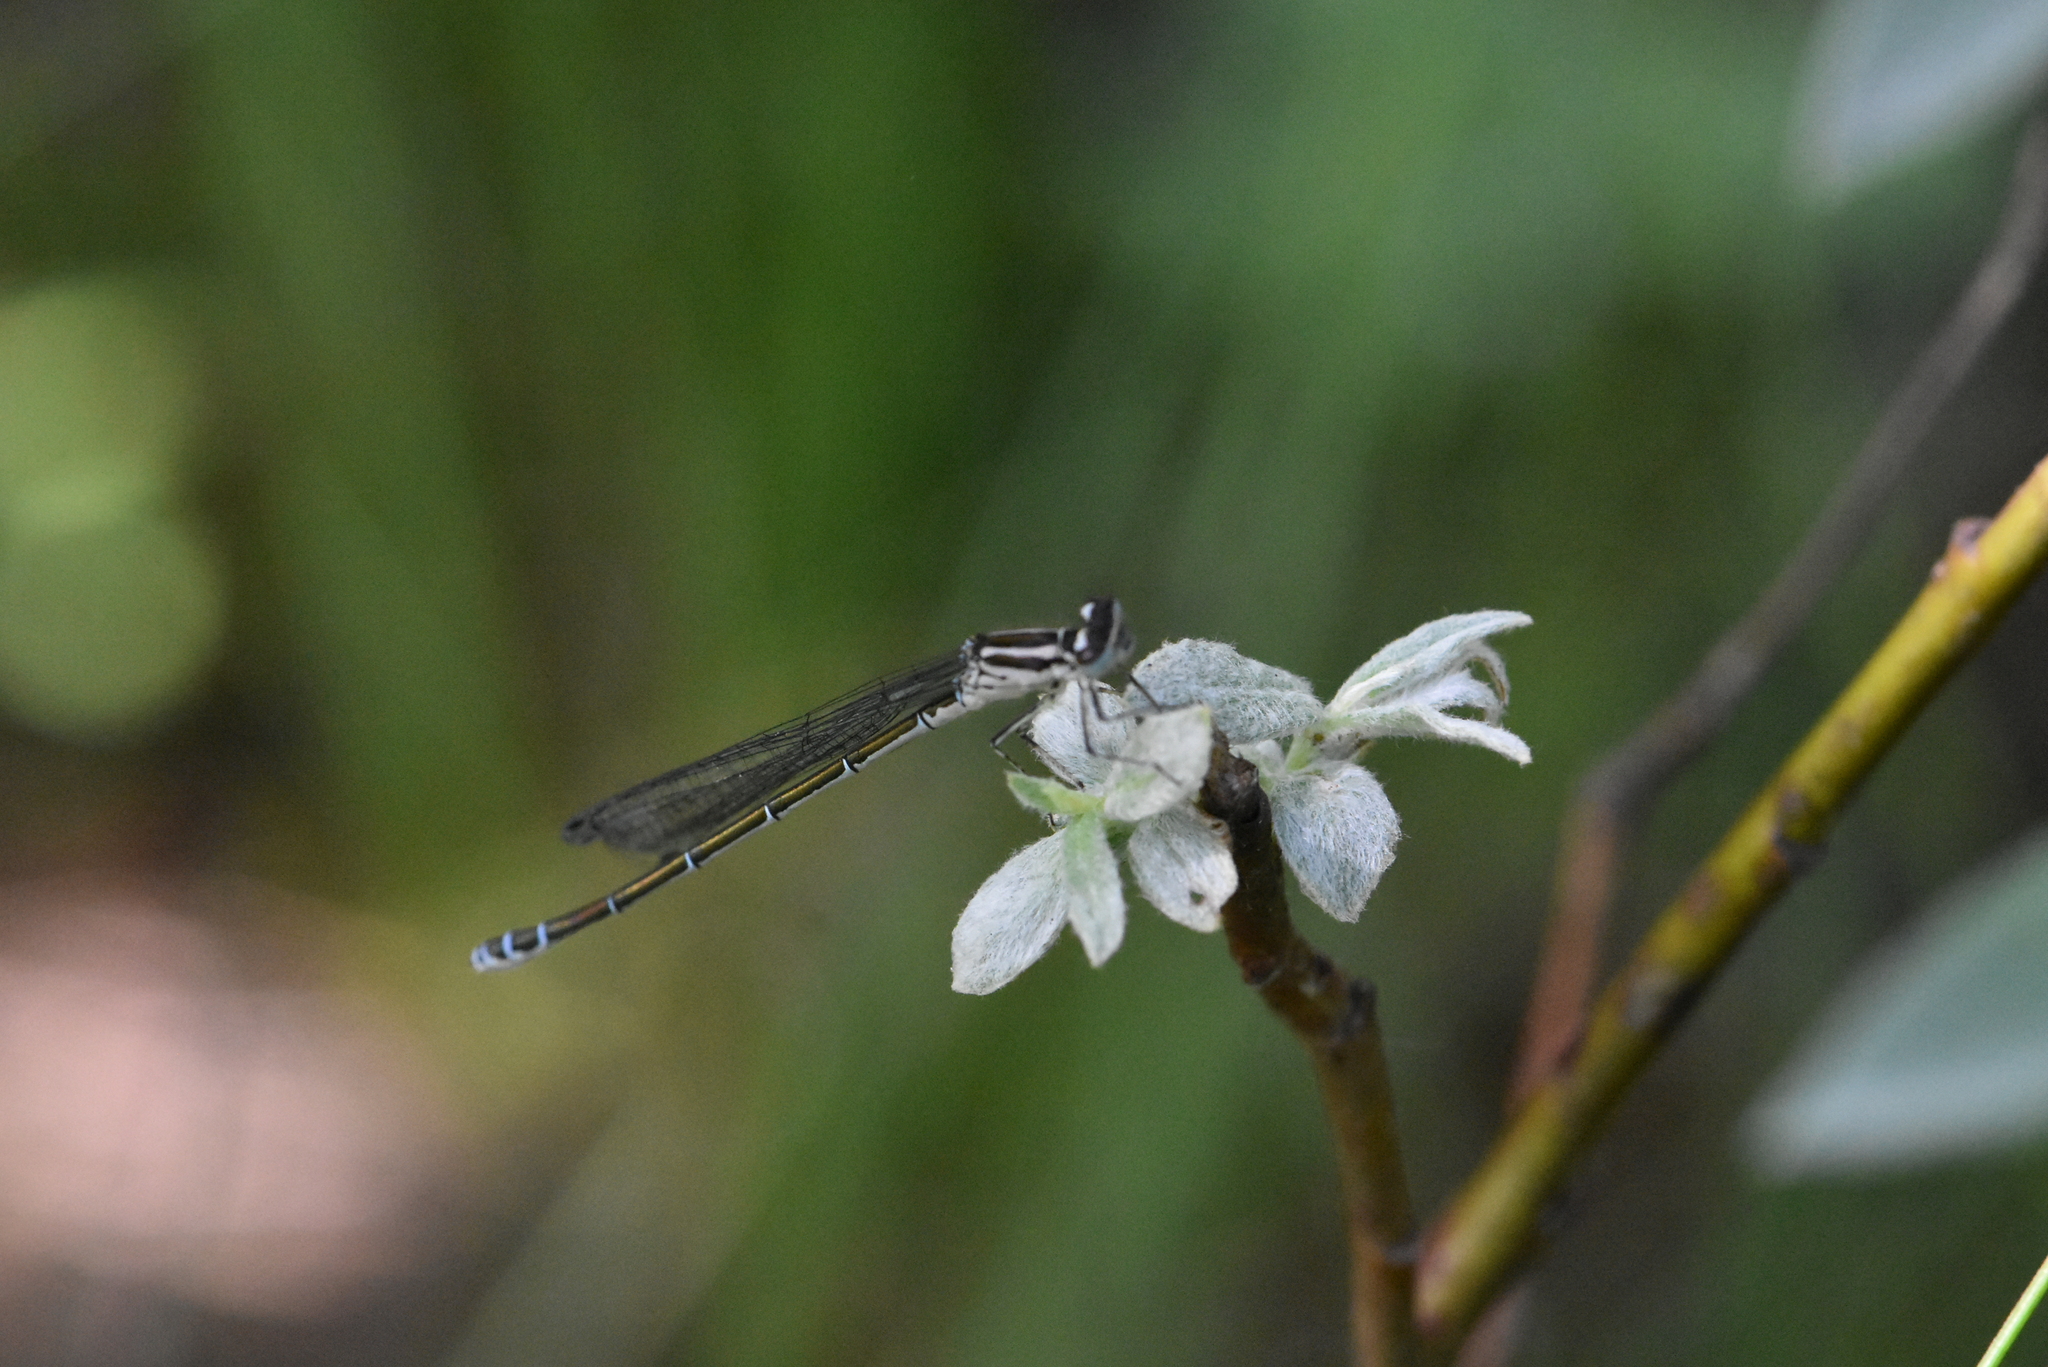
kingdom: Animalia
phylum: Arthropoda
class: Insecta
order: Odonata
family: Coenagrionidae
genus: Coenagrion
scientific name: Coenagrion puella
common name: Azure damselfly
